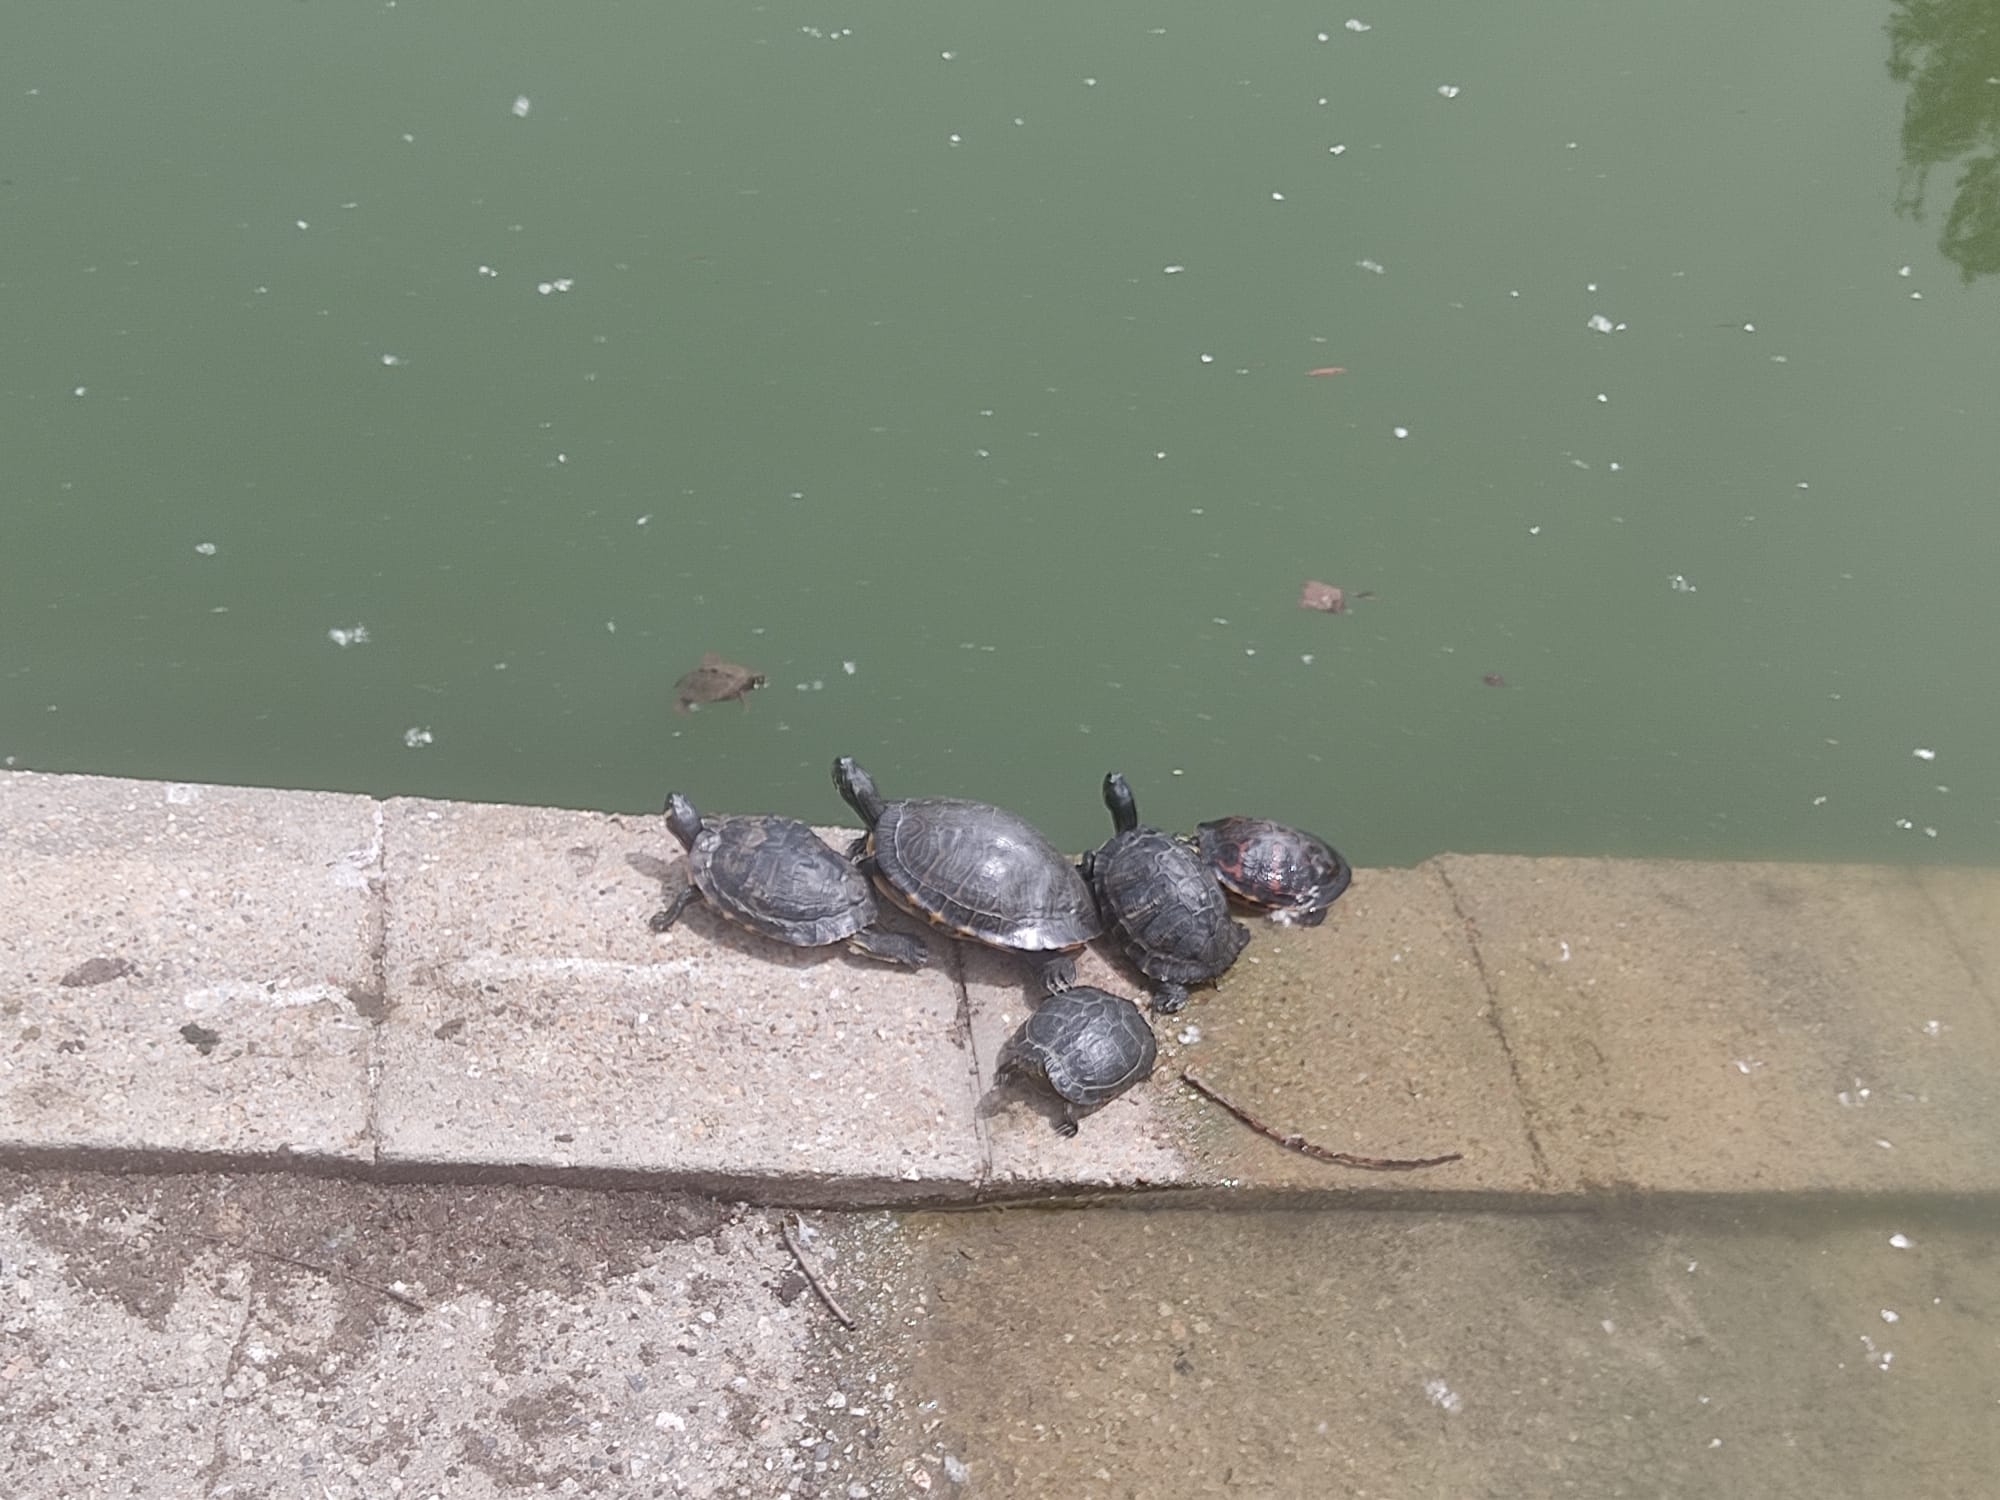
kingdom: Animalia
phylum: Chordata
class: Testudines
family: Emydidae
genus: Trachemys
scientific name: Trachemys scripta
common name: Slider
